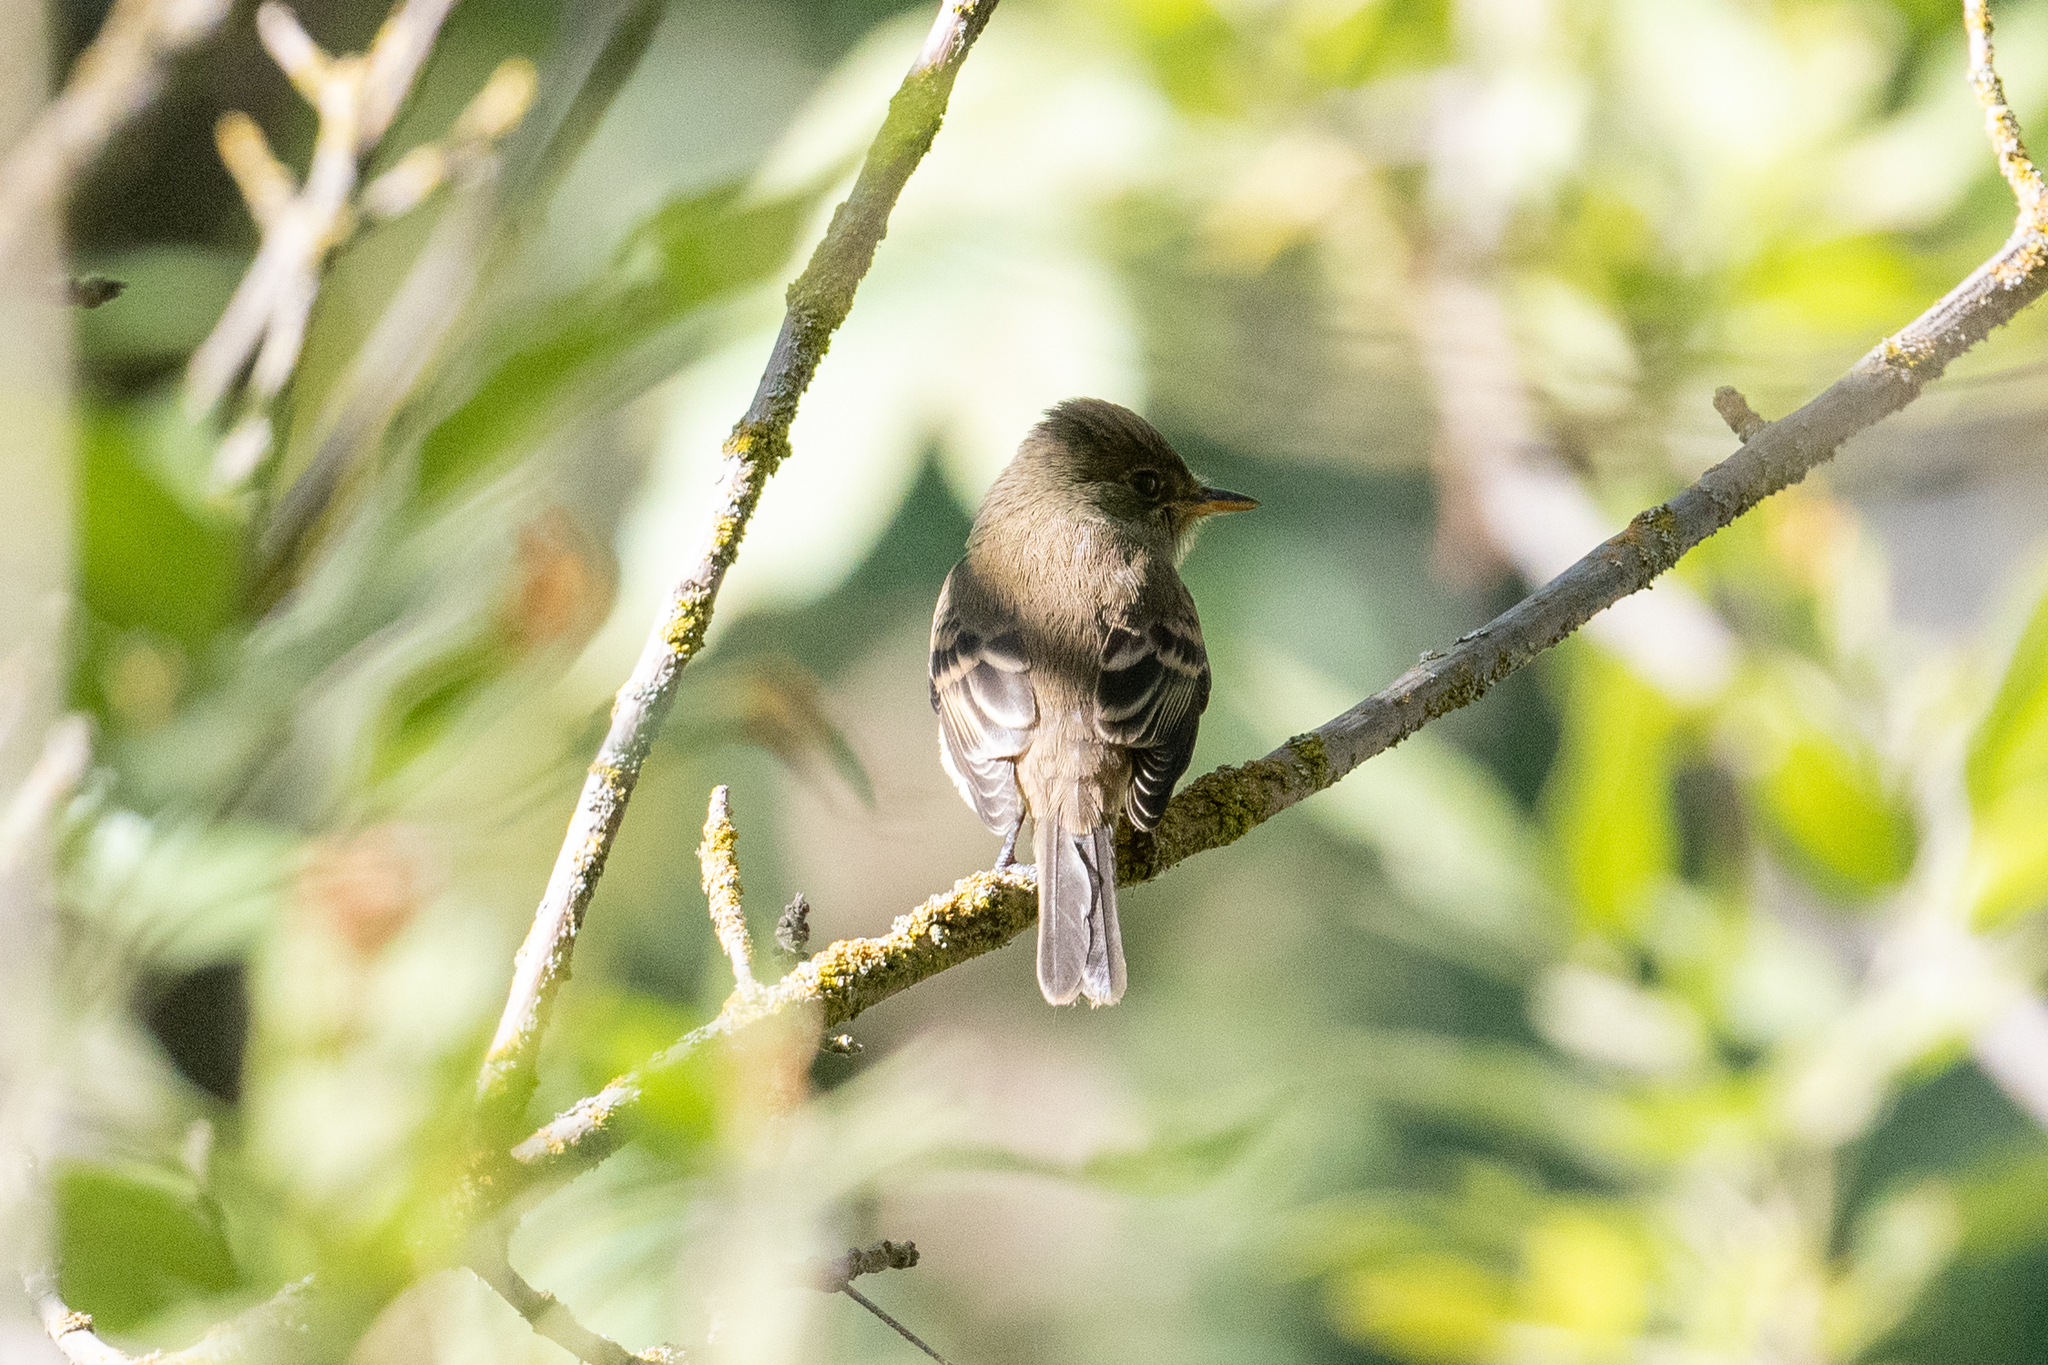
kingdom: Animalia
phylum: Chordata
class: Aves
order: Passeriformes
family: Tyrannidae
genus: Empidonax
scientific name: Empidonax traillii
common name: Willow flycatcher
